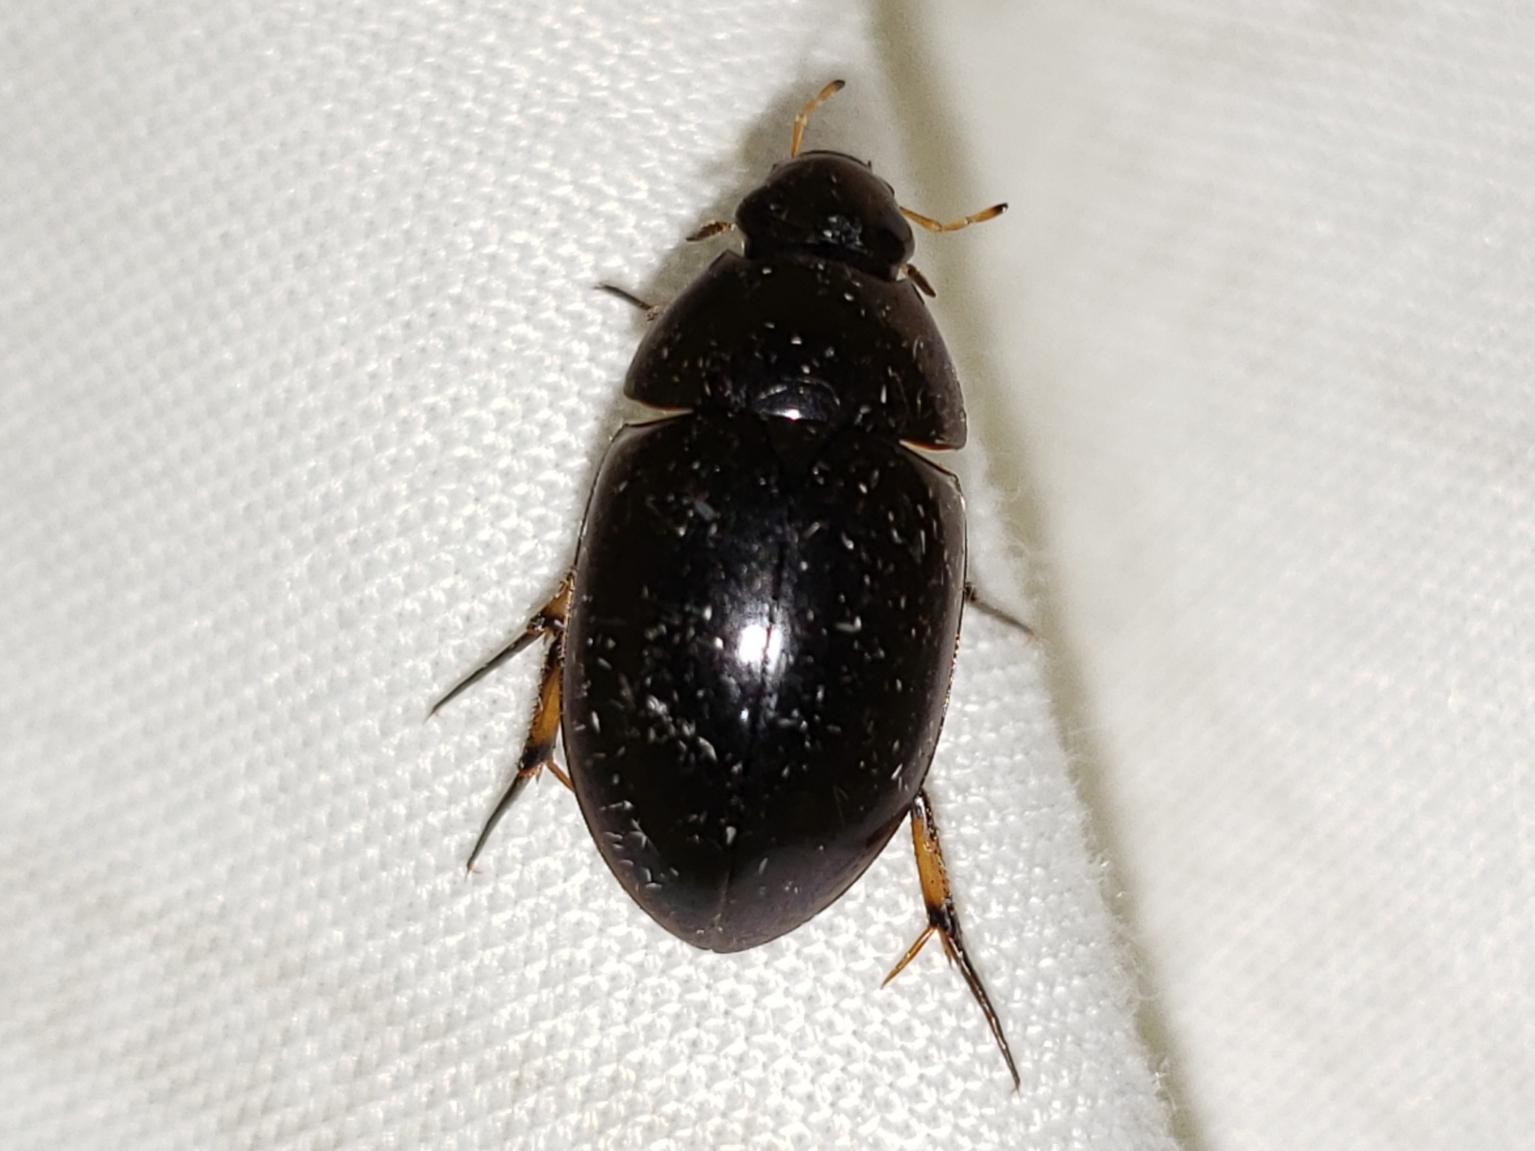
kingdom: Animalia
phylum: Arthropoda
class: Insecta
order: Coleoptera
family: Hydrophilidae
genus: Tropisternus
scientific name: Tropisternus blatchleyi
